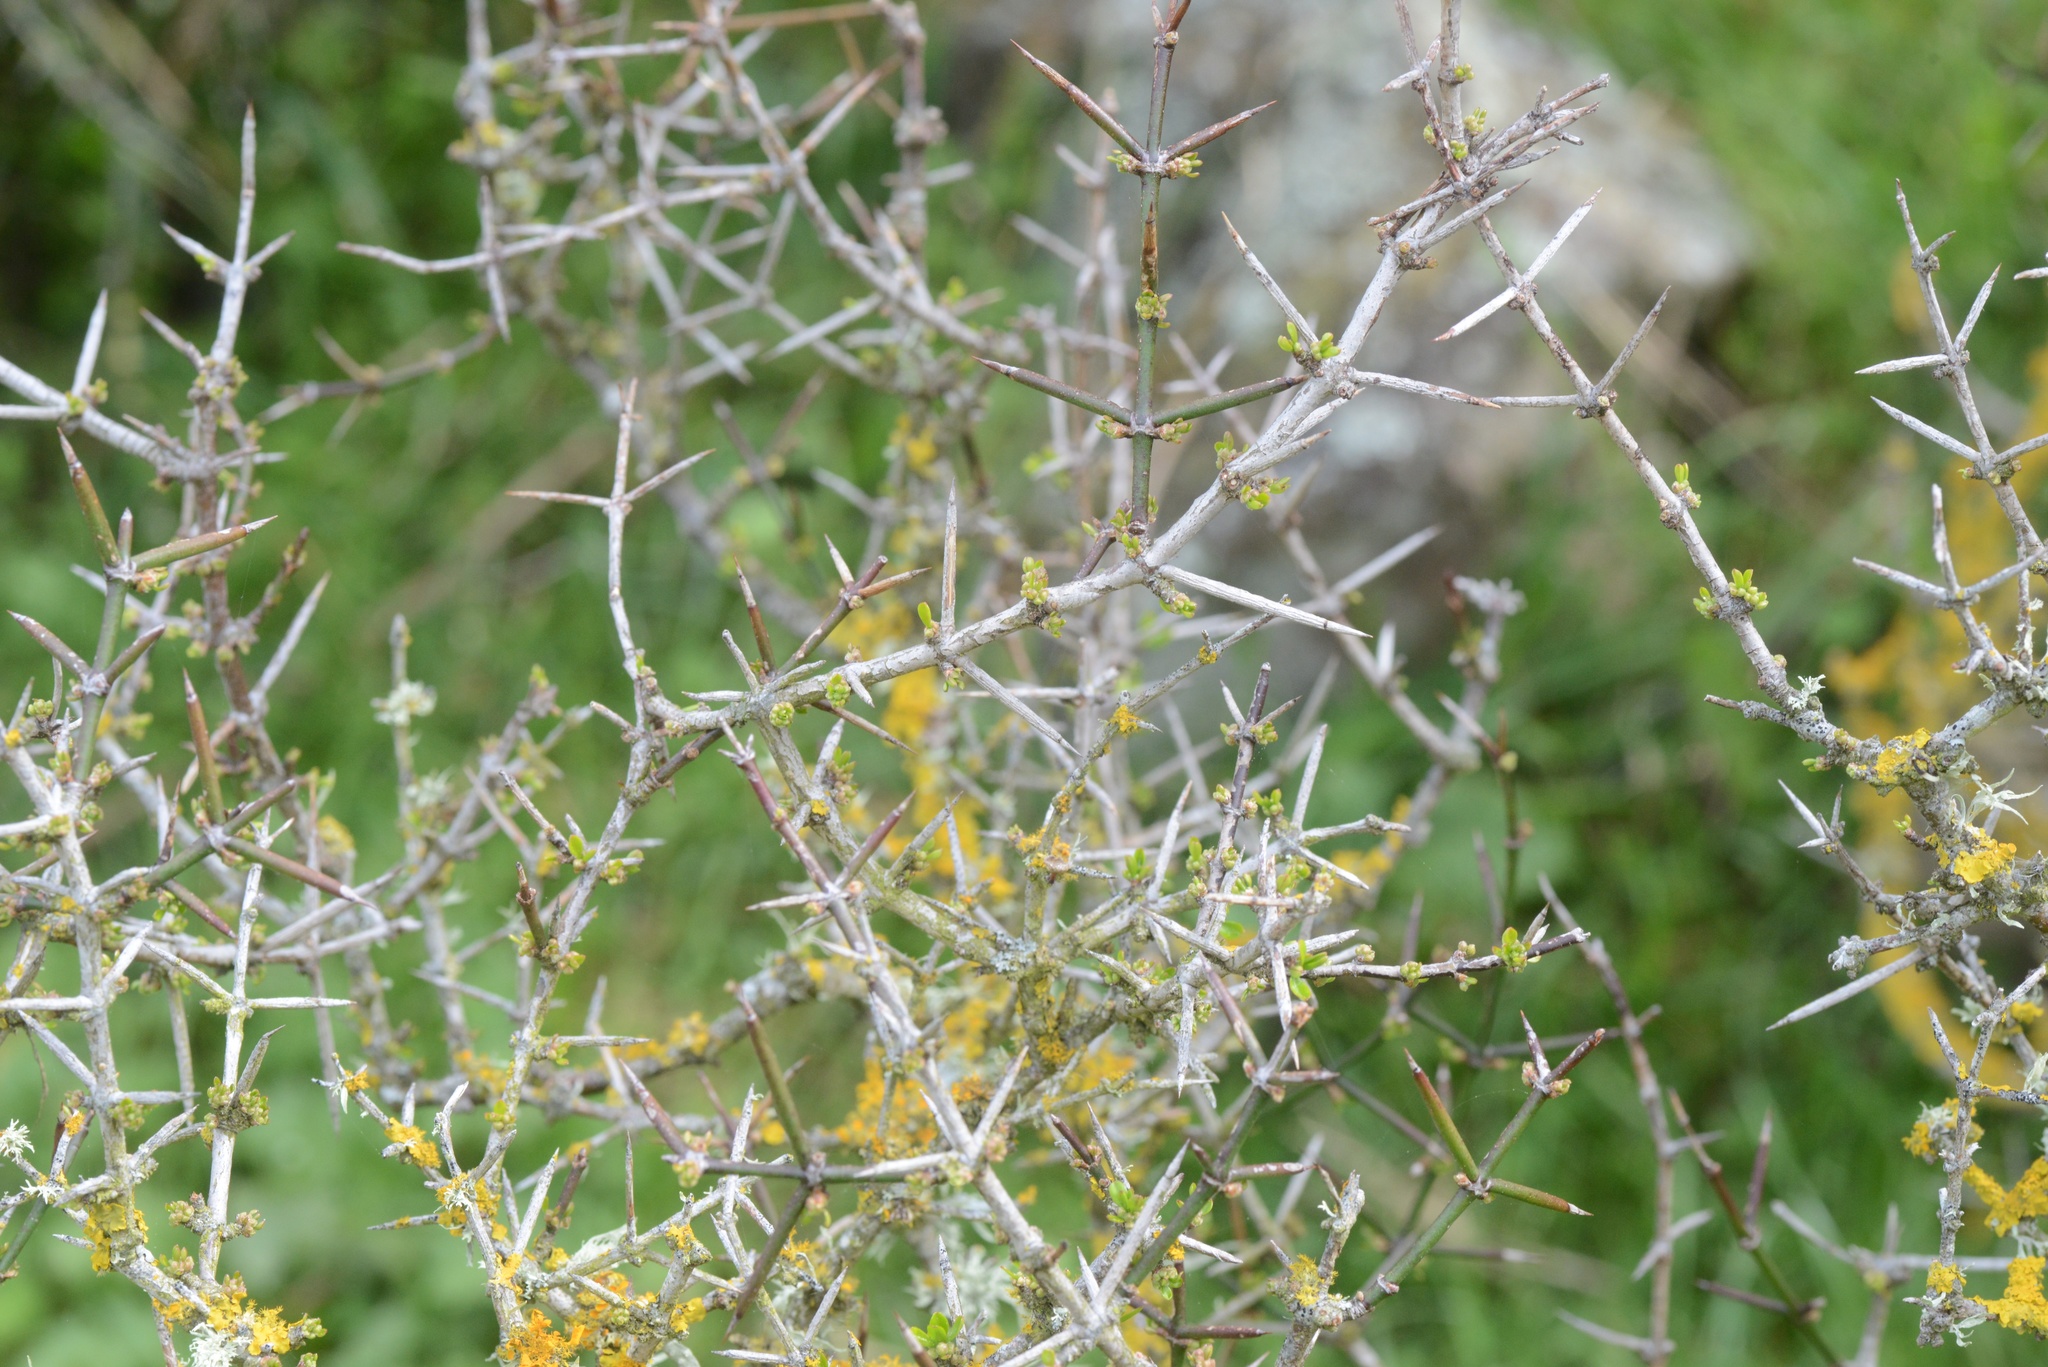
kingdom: Plantae
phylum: Tracheophyta
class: Magnoliopsida
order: Rosales
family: Rhamnaceae
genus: Discaria
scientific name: Discaria toumatou
